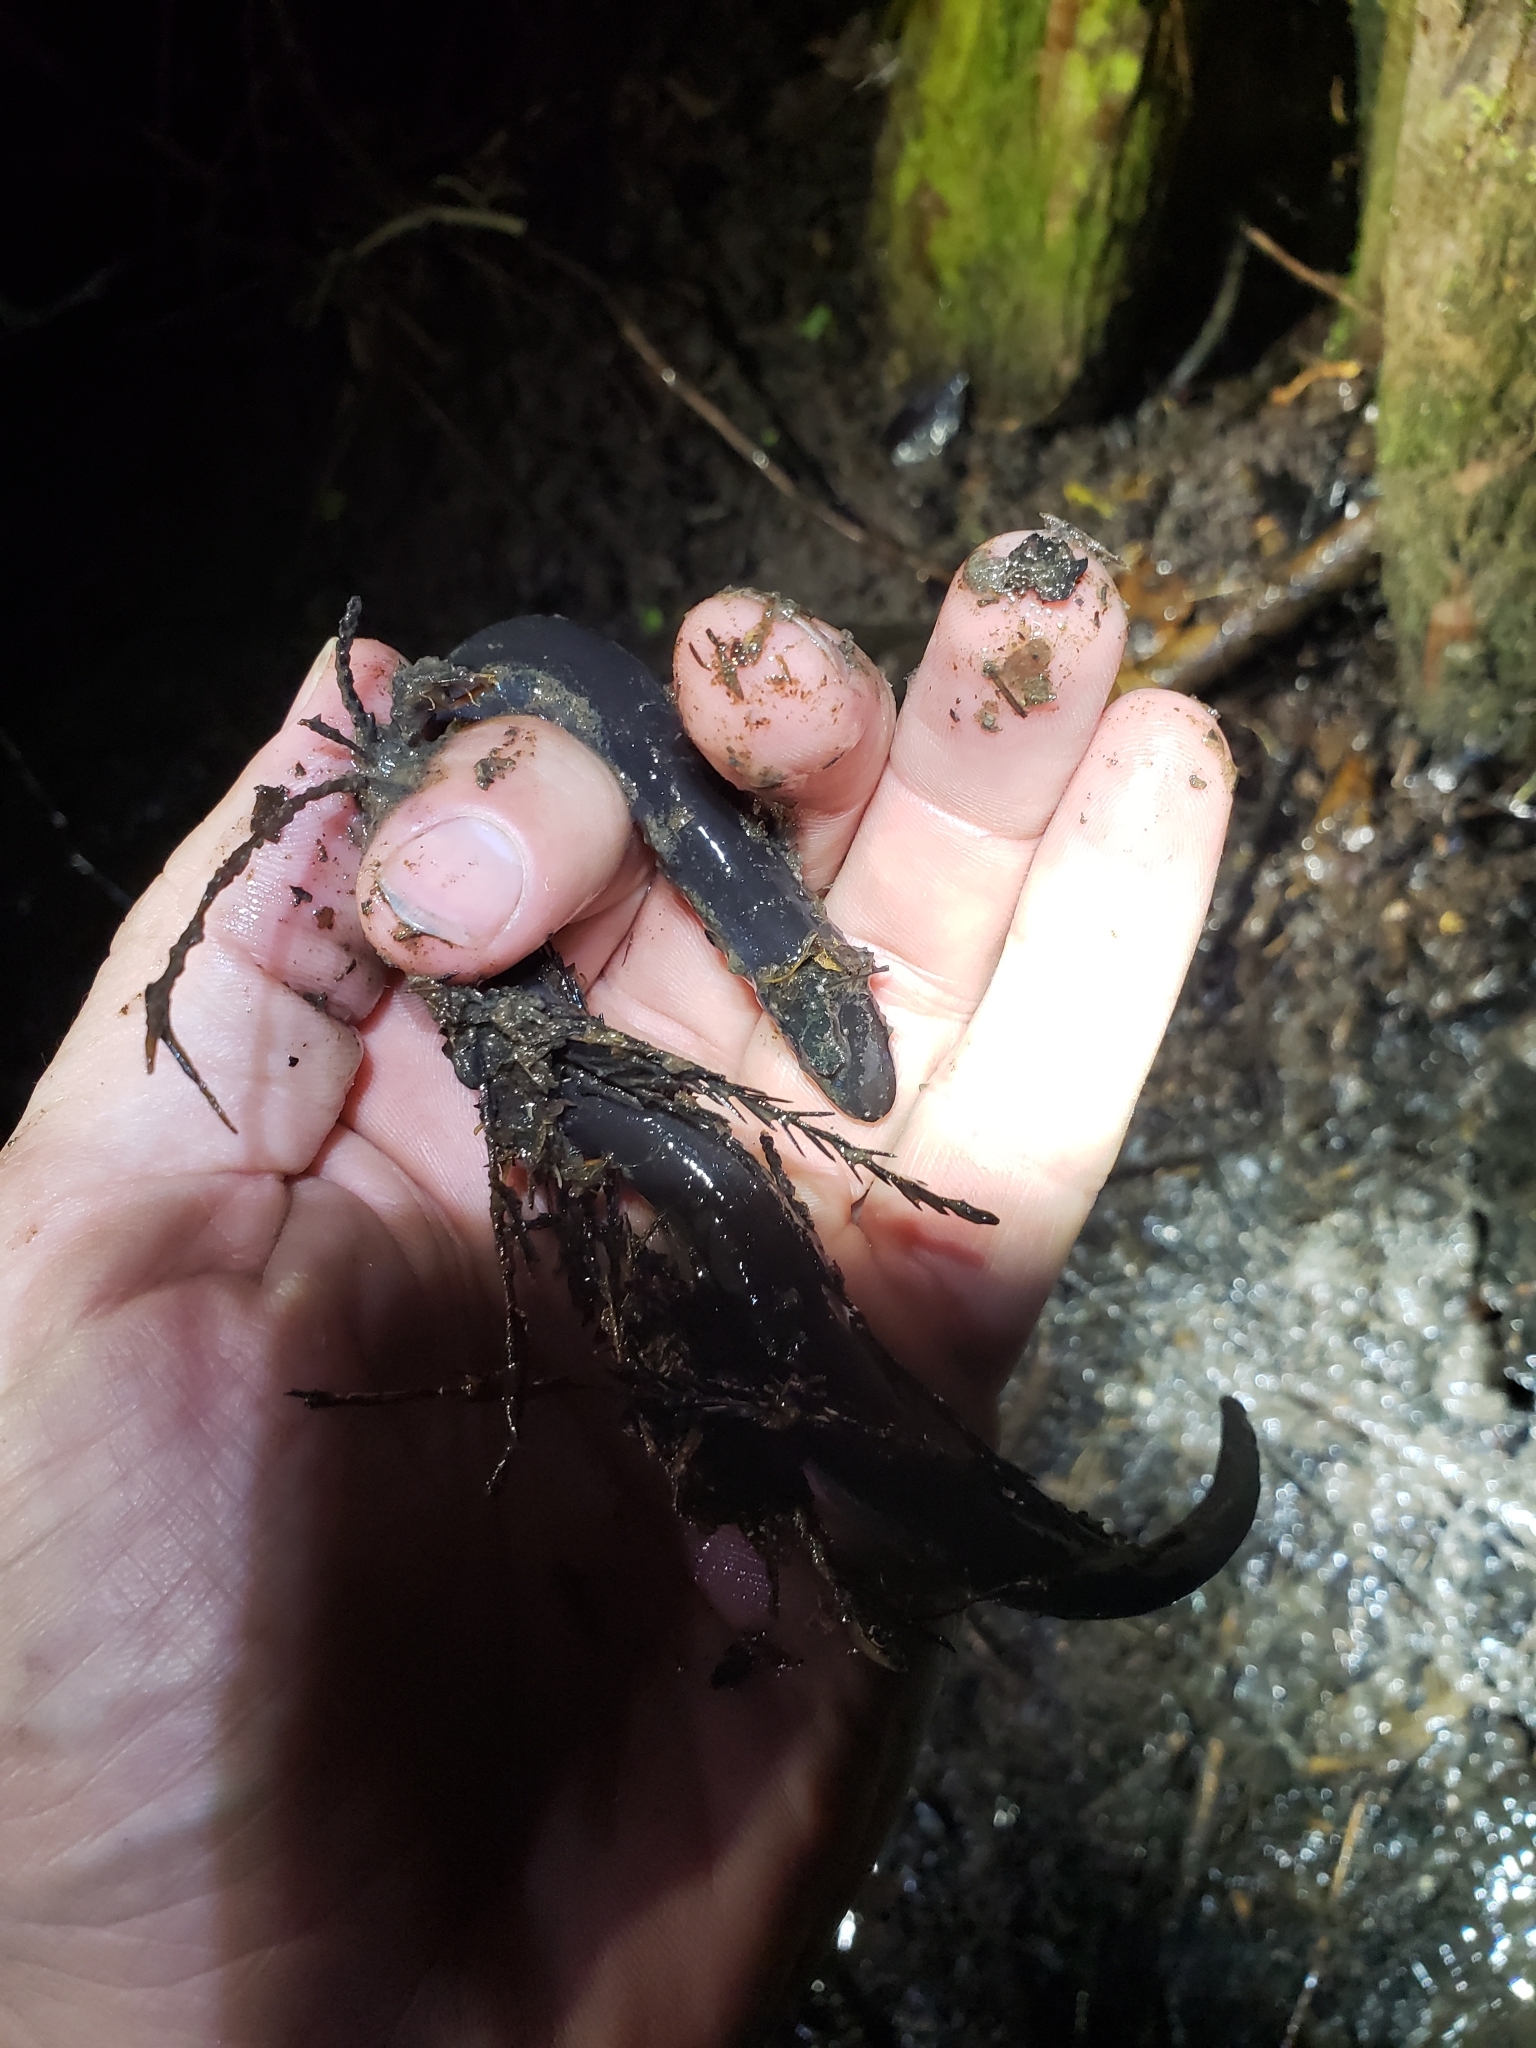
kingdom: Animalia
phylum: Chordata
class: Amphibia
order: Caudata
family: Amphiumidae
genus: Amphiuma
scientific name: Amphiuma tridactylum
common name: Three-toed amphiuma
